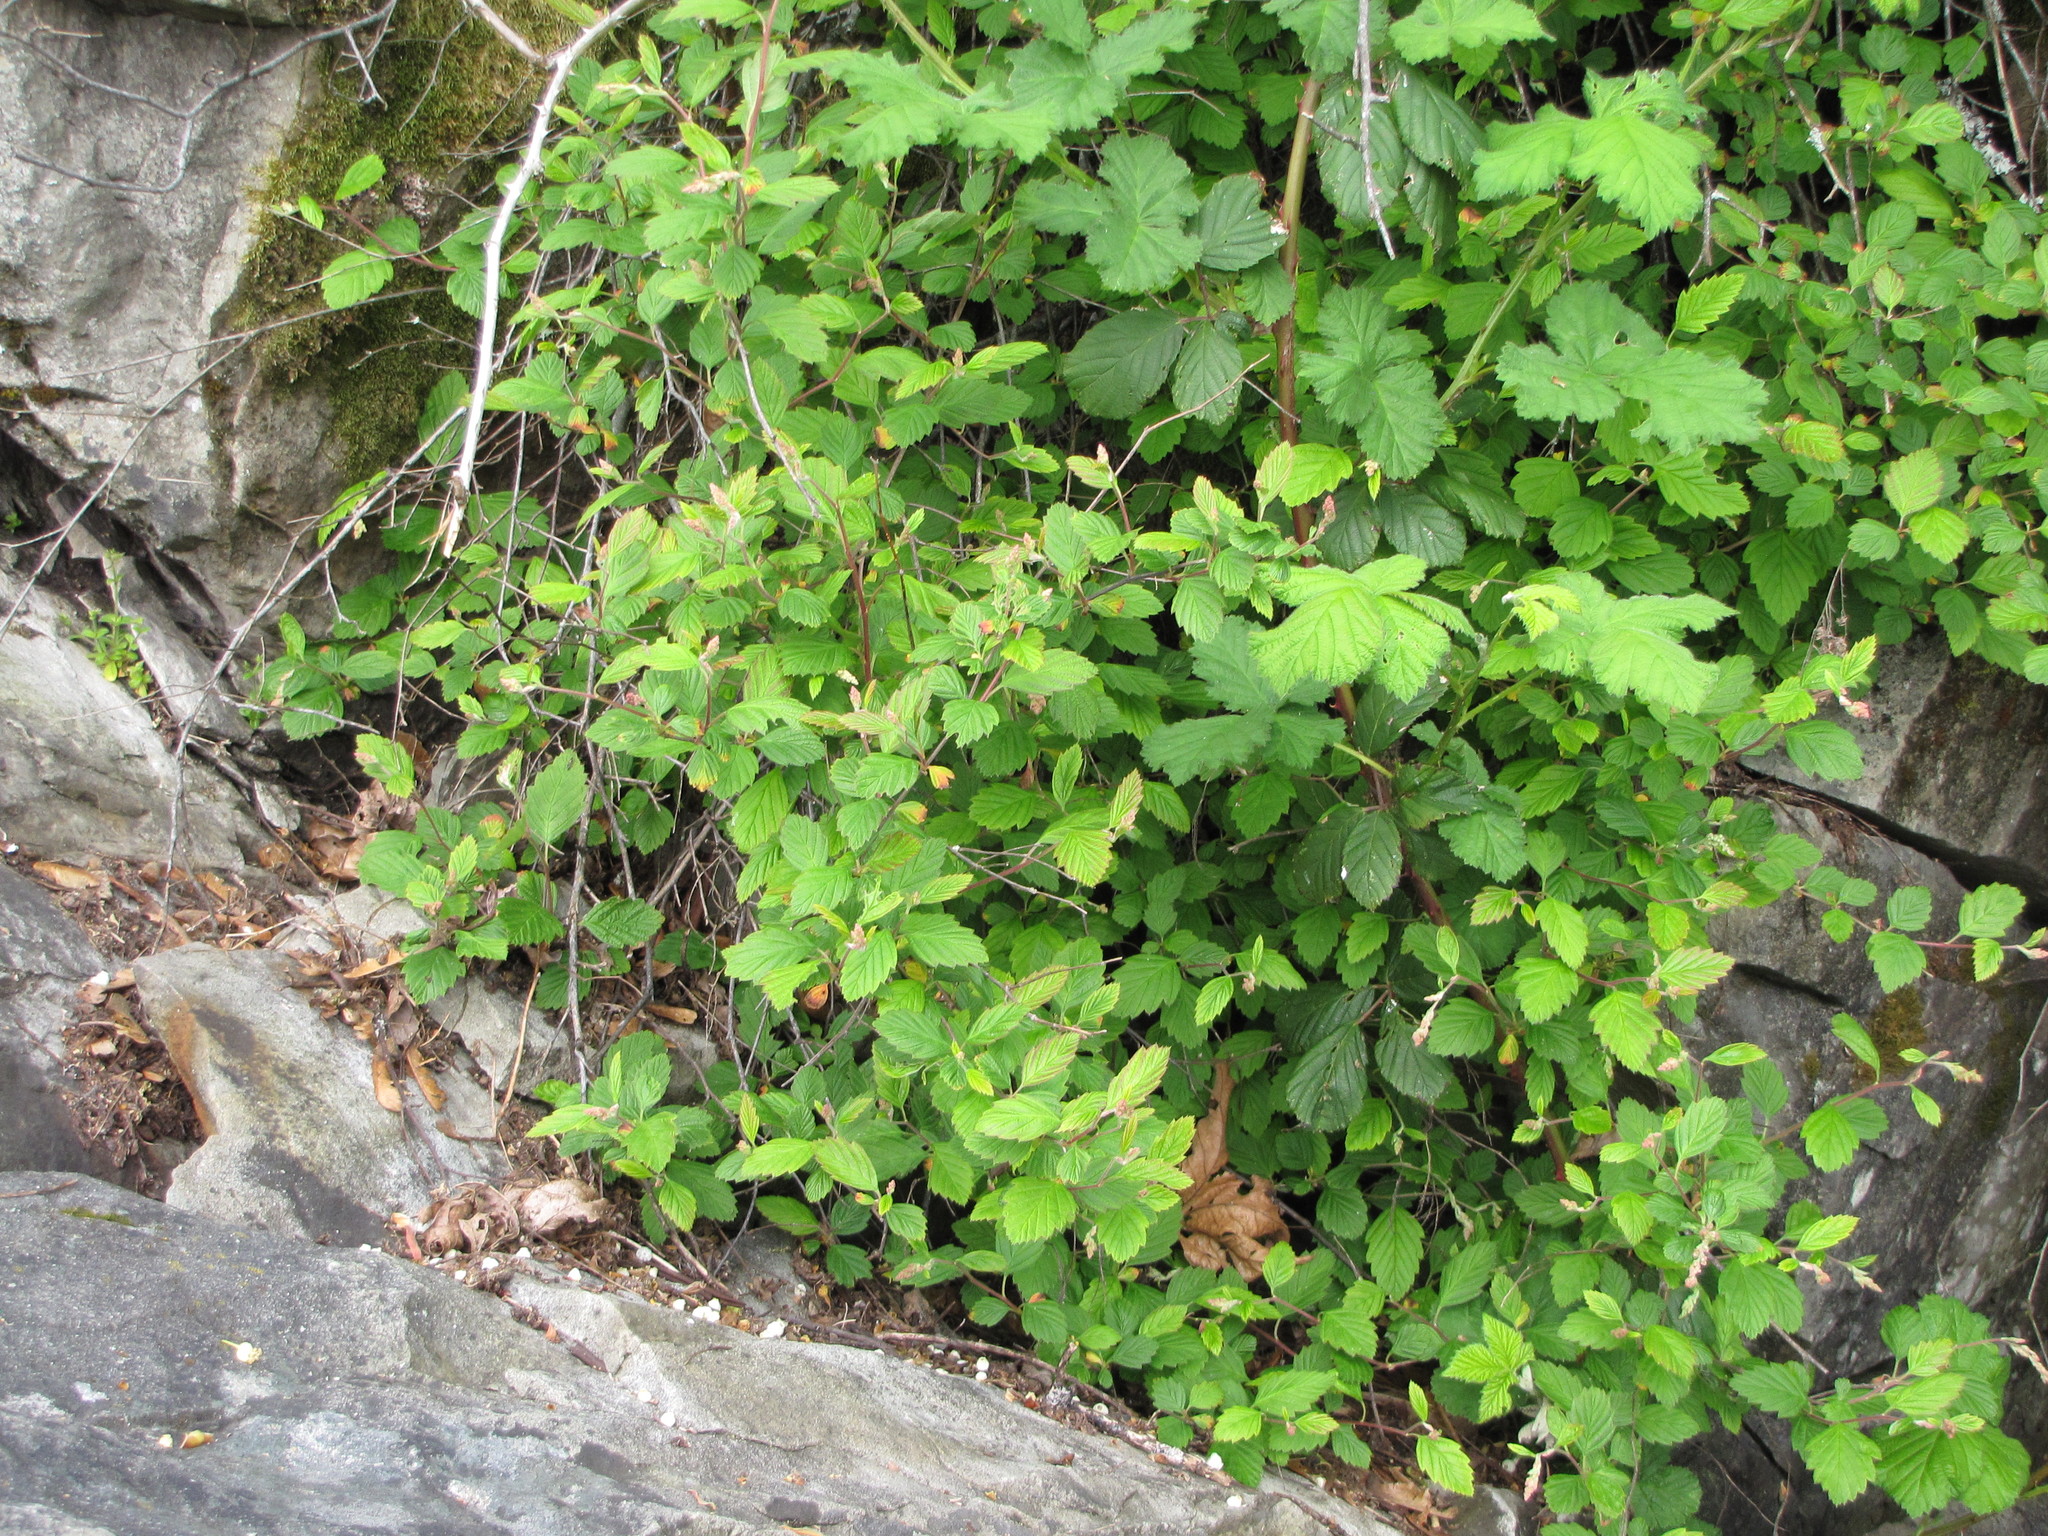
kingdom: Plantae
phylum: Tracheophyta
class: Magnoliopsida
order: Rosales
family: Rosaceae
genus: Holodiscus
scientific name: Holodiscus discolor
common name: Oceanspray
